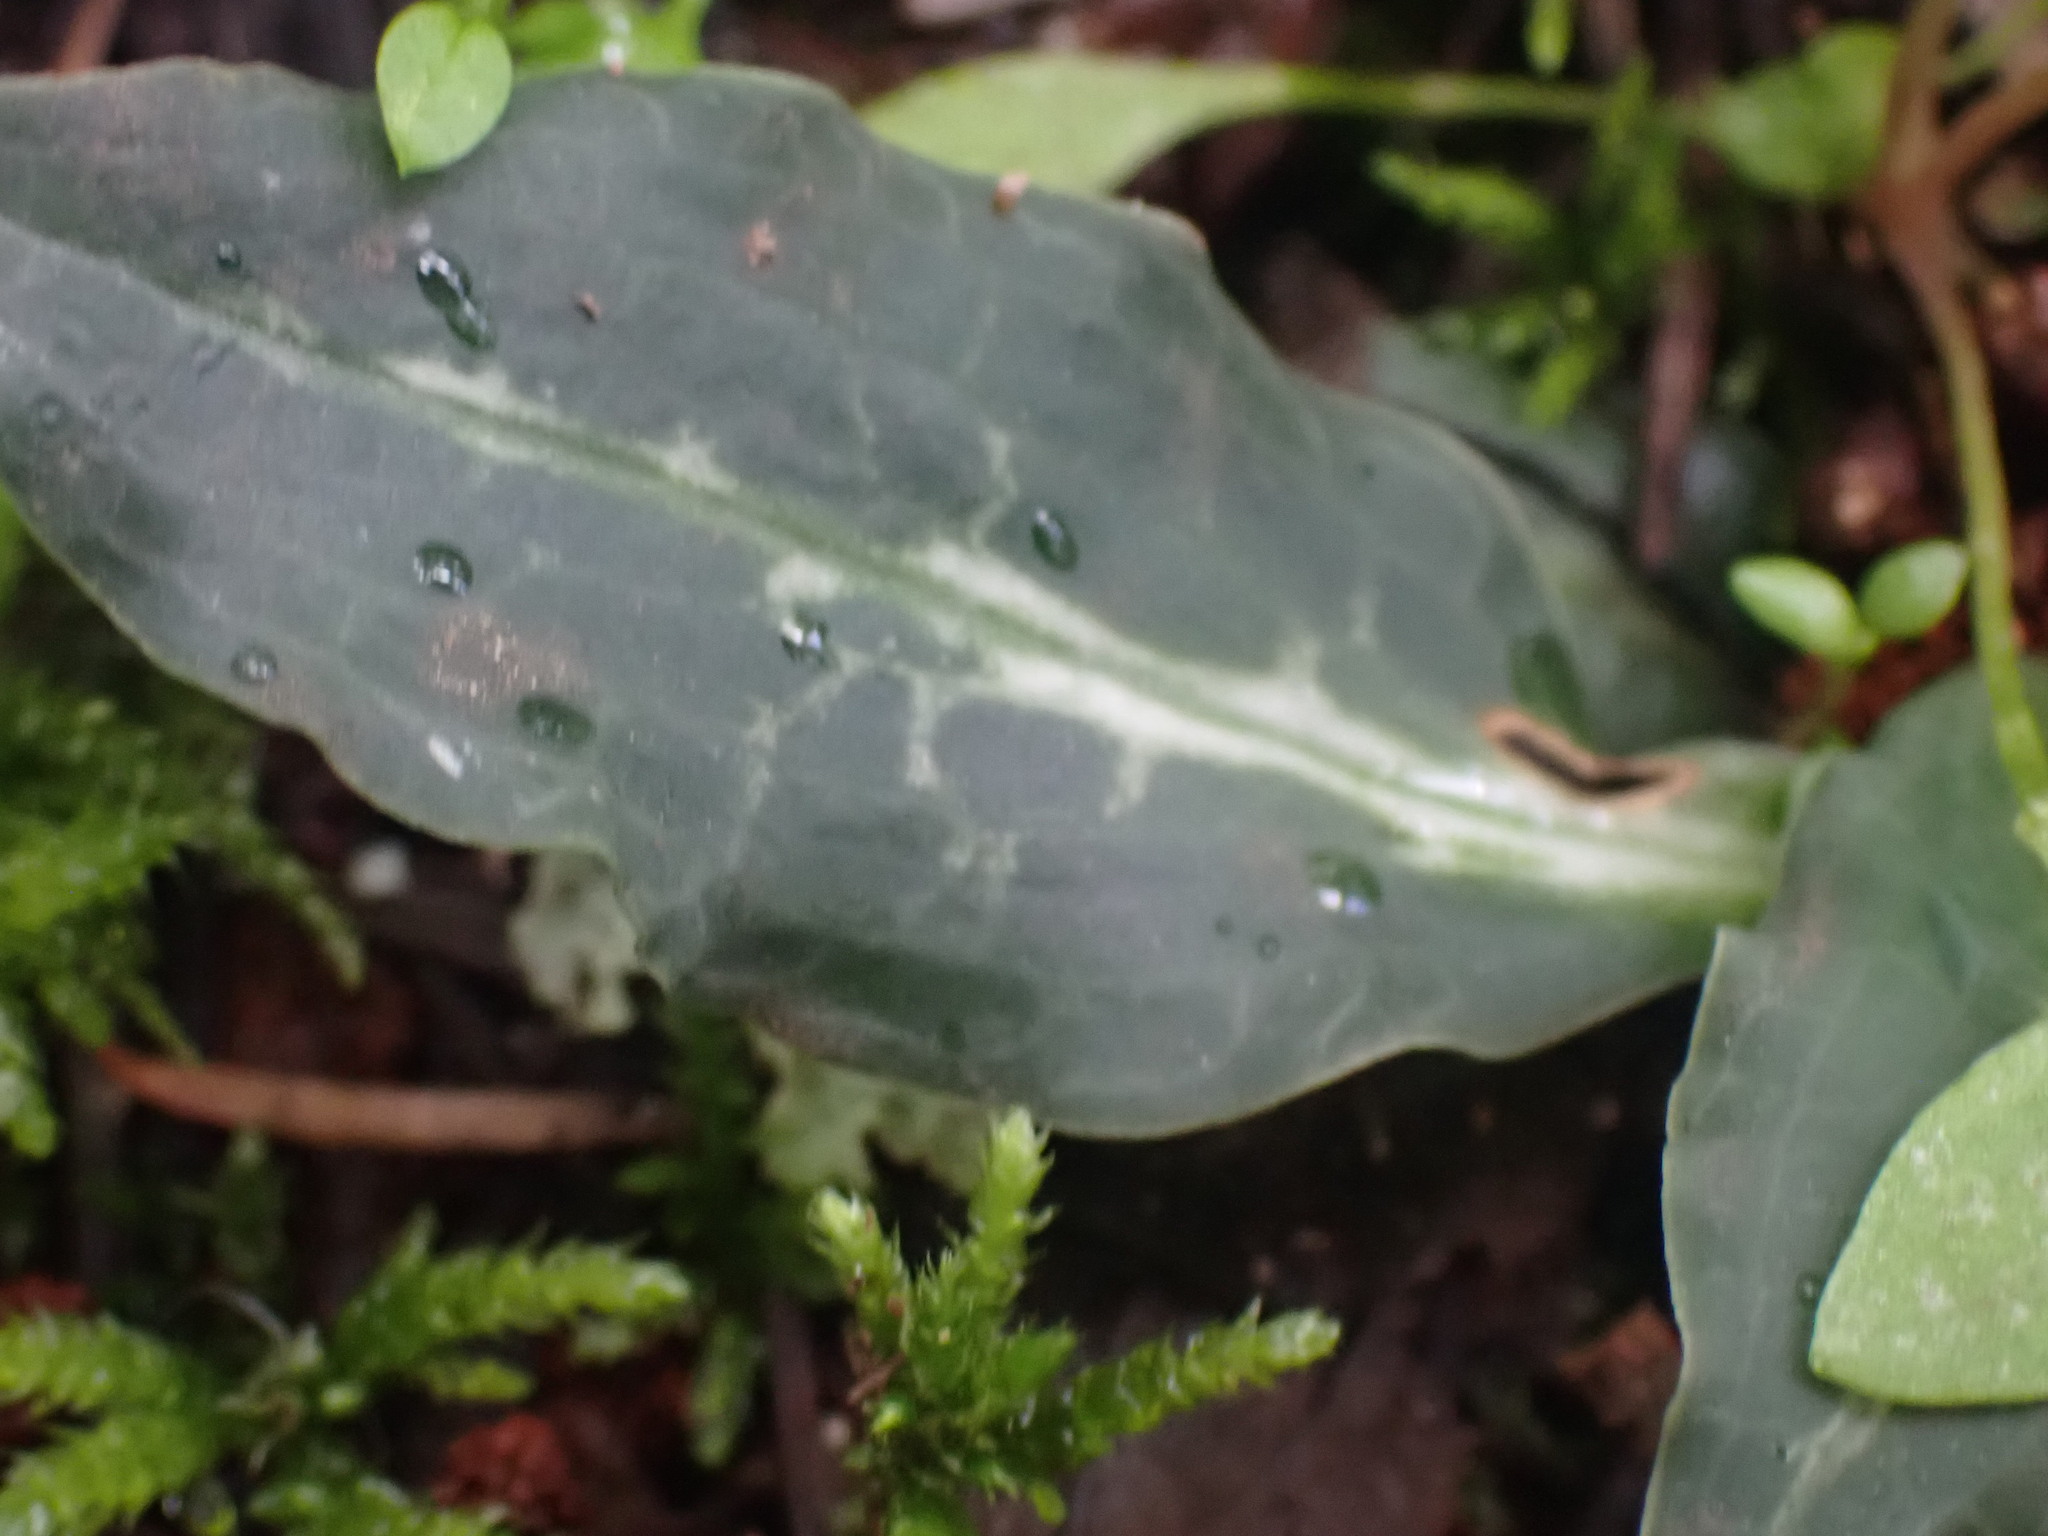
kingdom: Plantae
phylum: Tracheophyta
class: Liliopsida
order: Asparagales
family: Orchidaceae
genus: Goodyera
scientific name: Goodyera oblongifolia
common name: Giant rattlesnake-plantain
